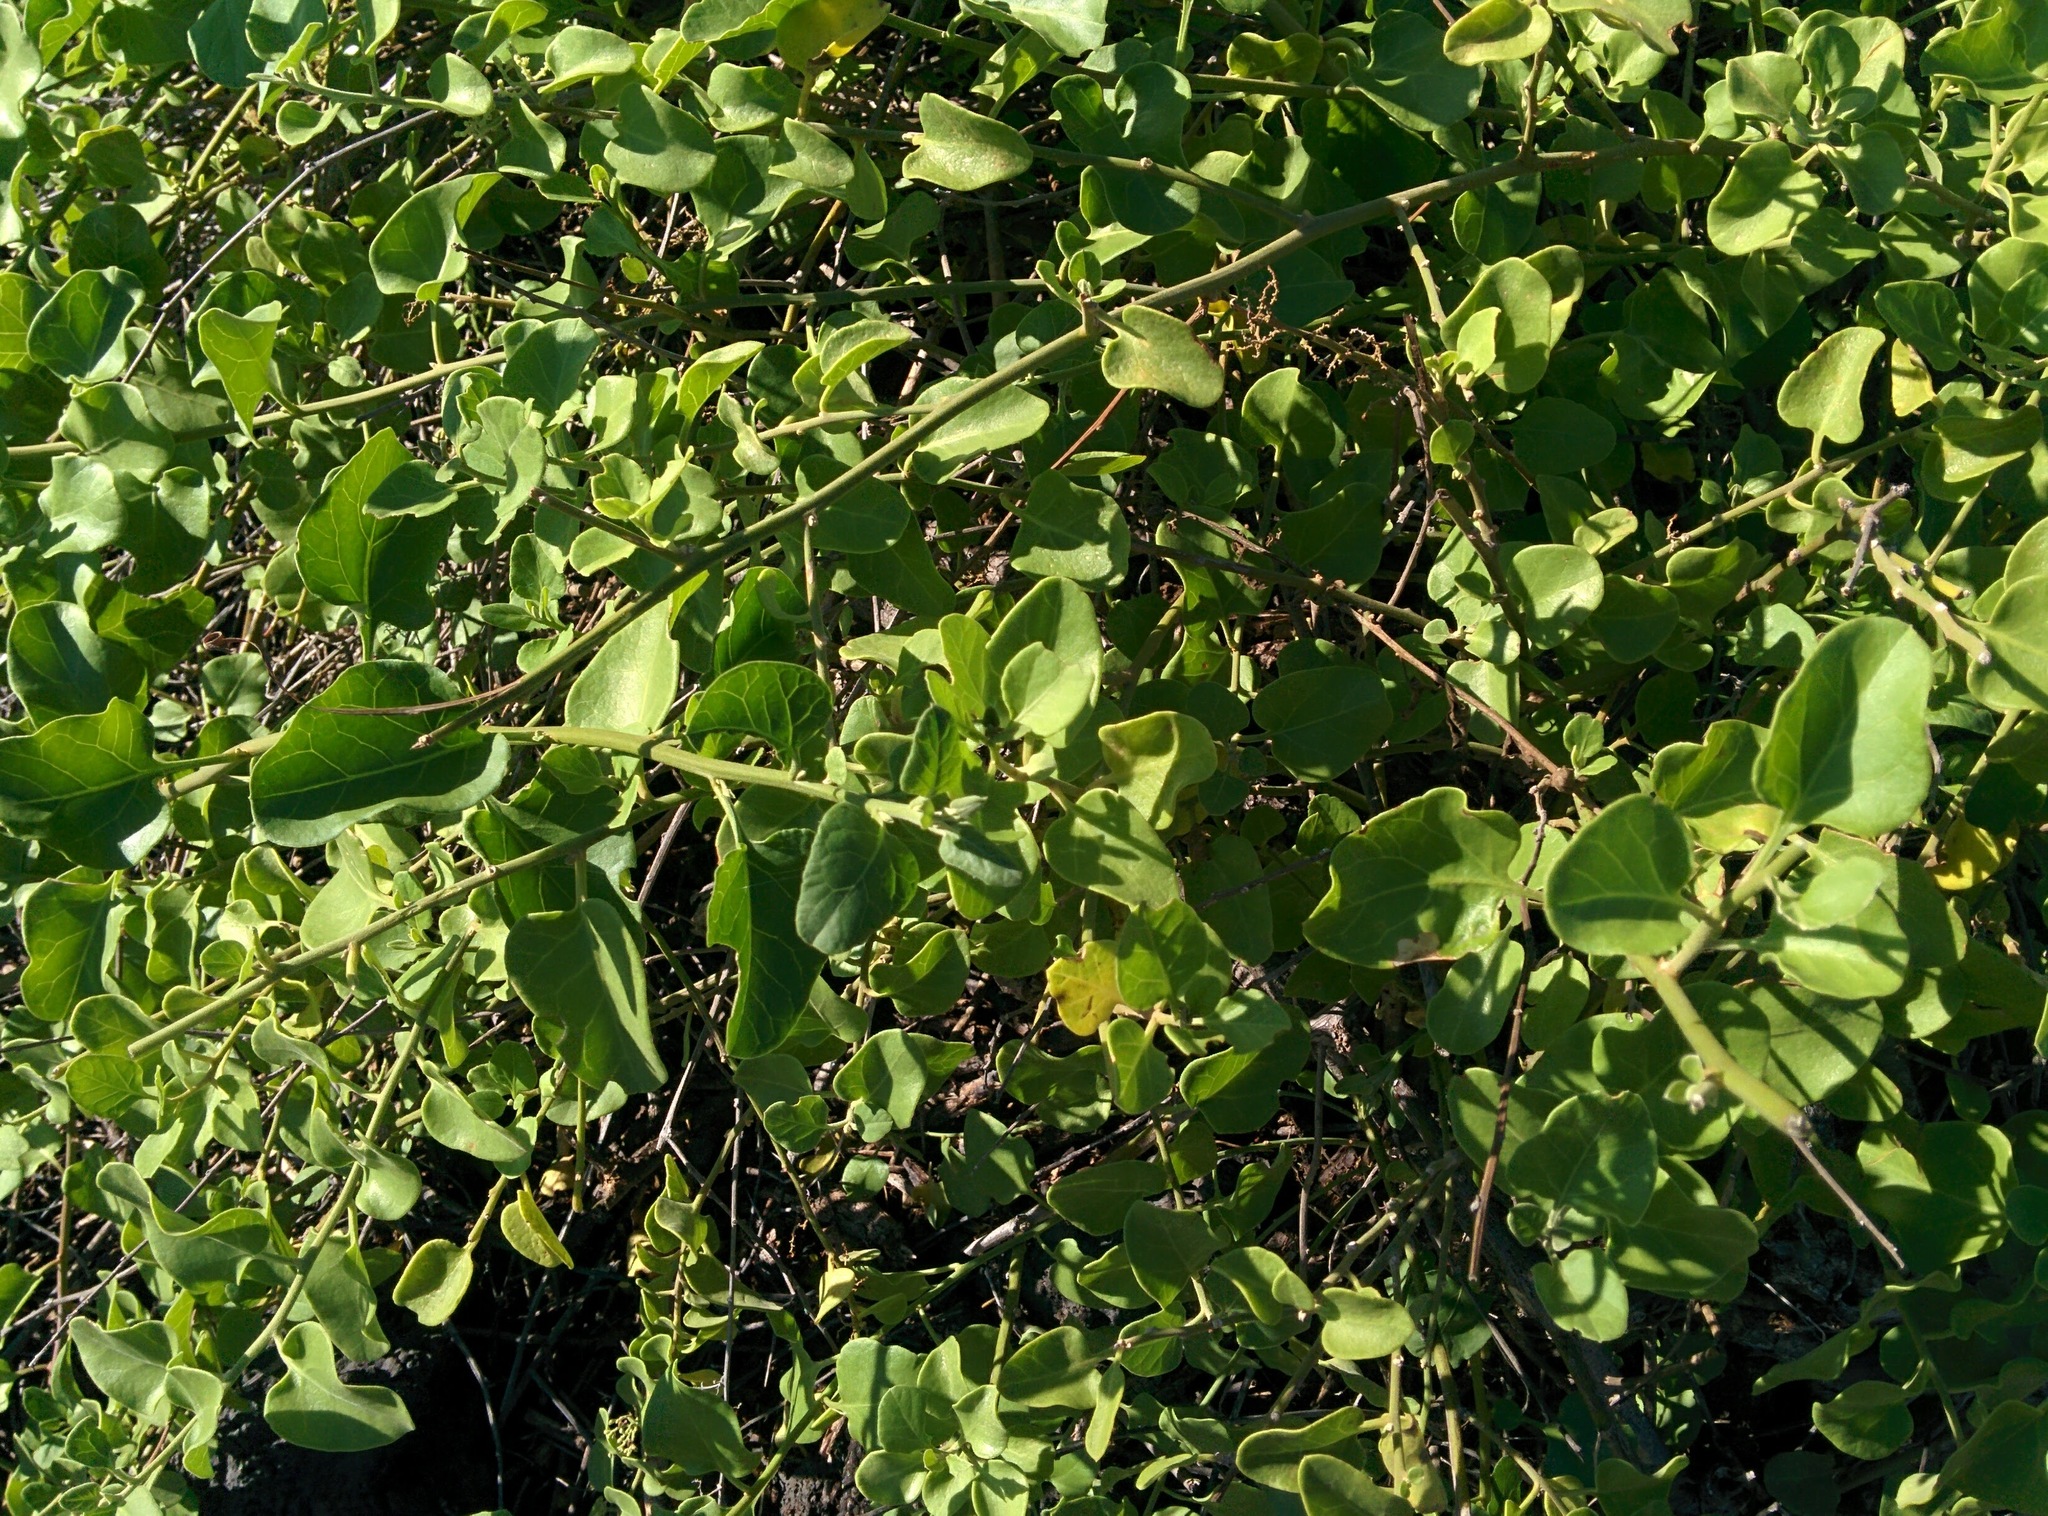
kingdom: Plantae
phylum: Tracheophyta
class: Magnoliopsida
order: Caryophyllales
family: Nyctaginaceae
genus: Cryptocarpus
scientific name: Cryptocarpus pyriformis
